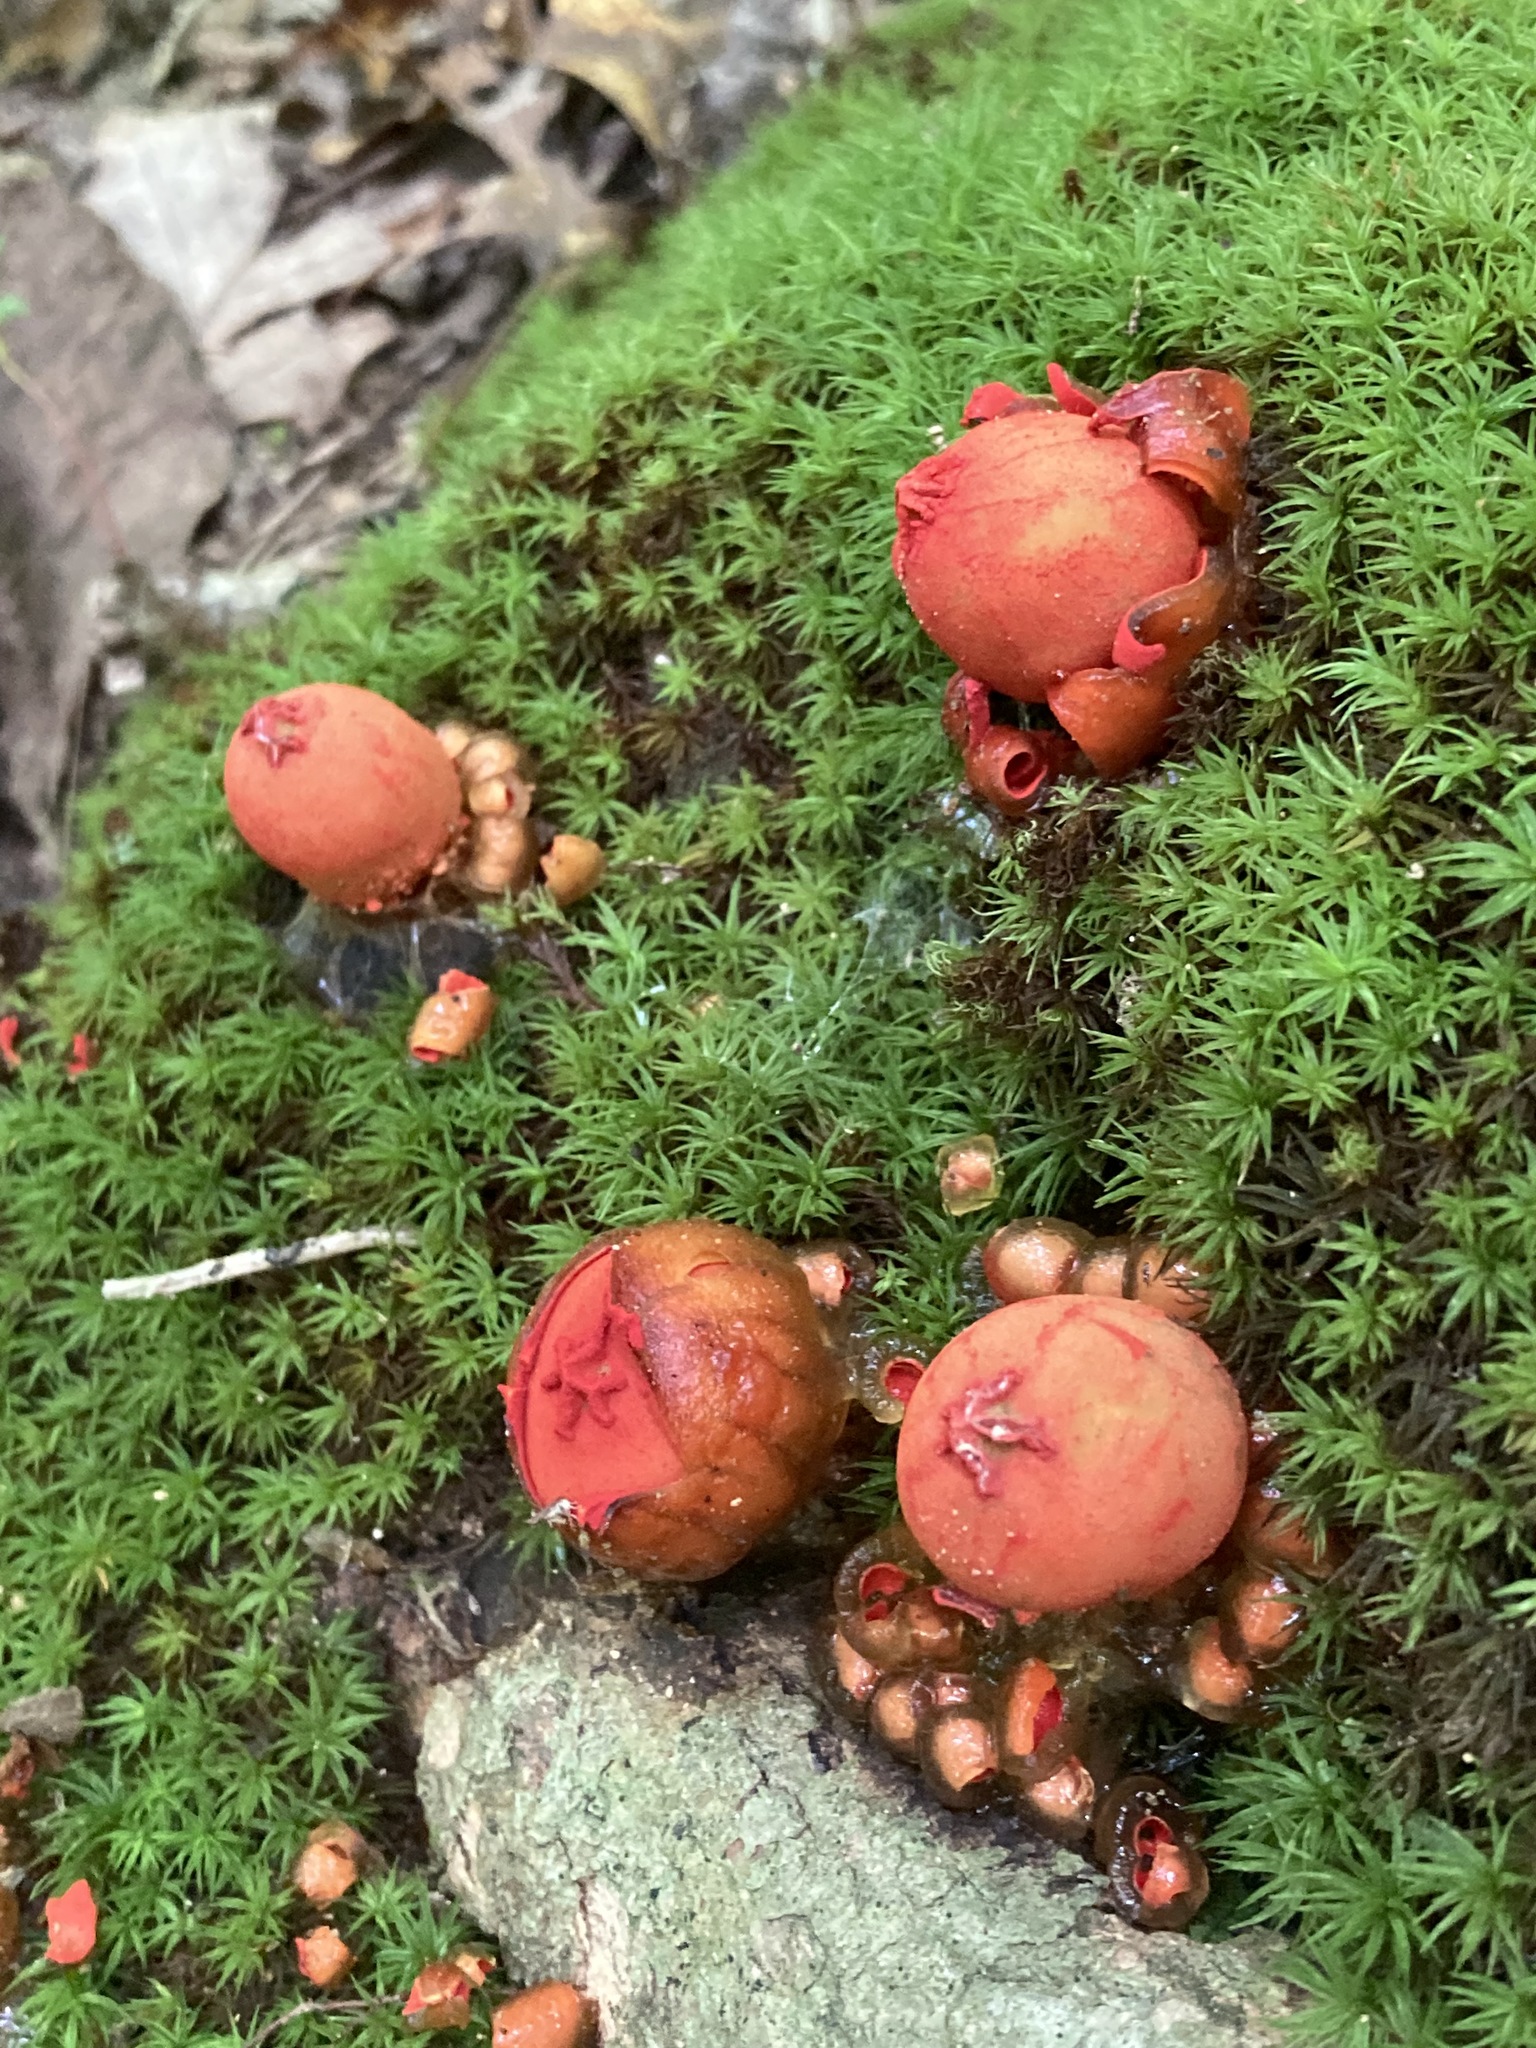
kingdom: Fungi
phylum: Basidiomycota
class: Agaricomycetes
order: Boletales
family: Calostomataceae
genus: Calostoma
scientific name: Calostoma cinnabarinum
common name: Stalked puffball-in-aspic
